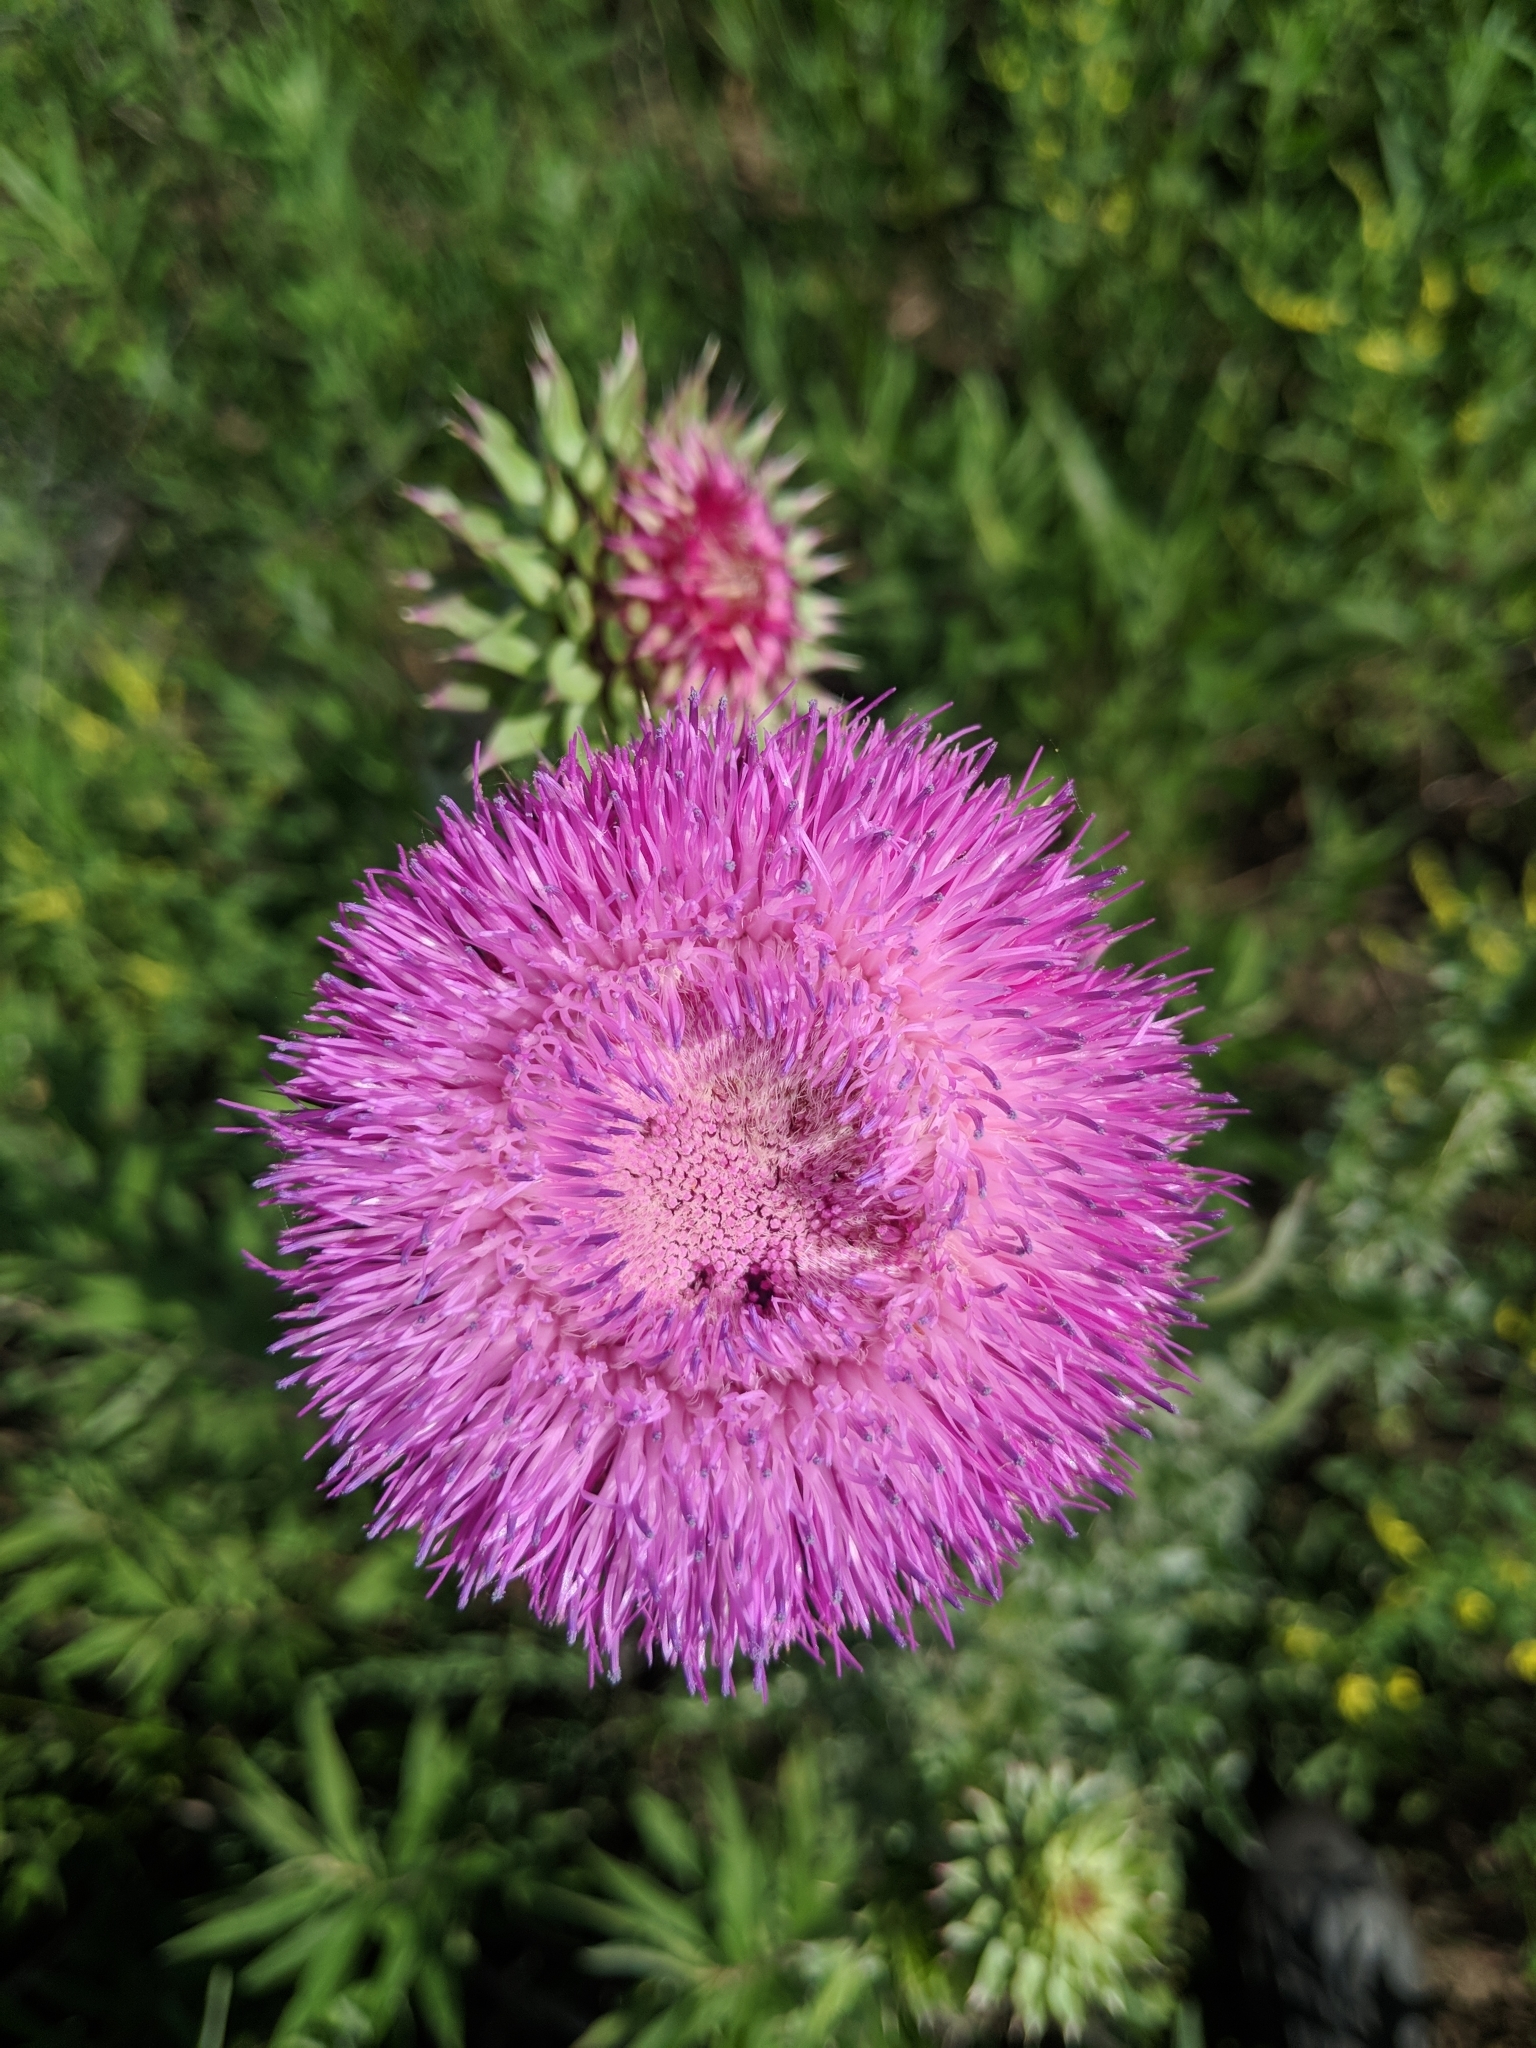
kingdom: Plantae
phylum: Tracheophyta
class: Magnoliopsida
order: Asterales
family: Asteraceae
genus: Carduus
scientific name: Carduus nutans
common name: Musk thistle
